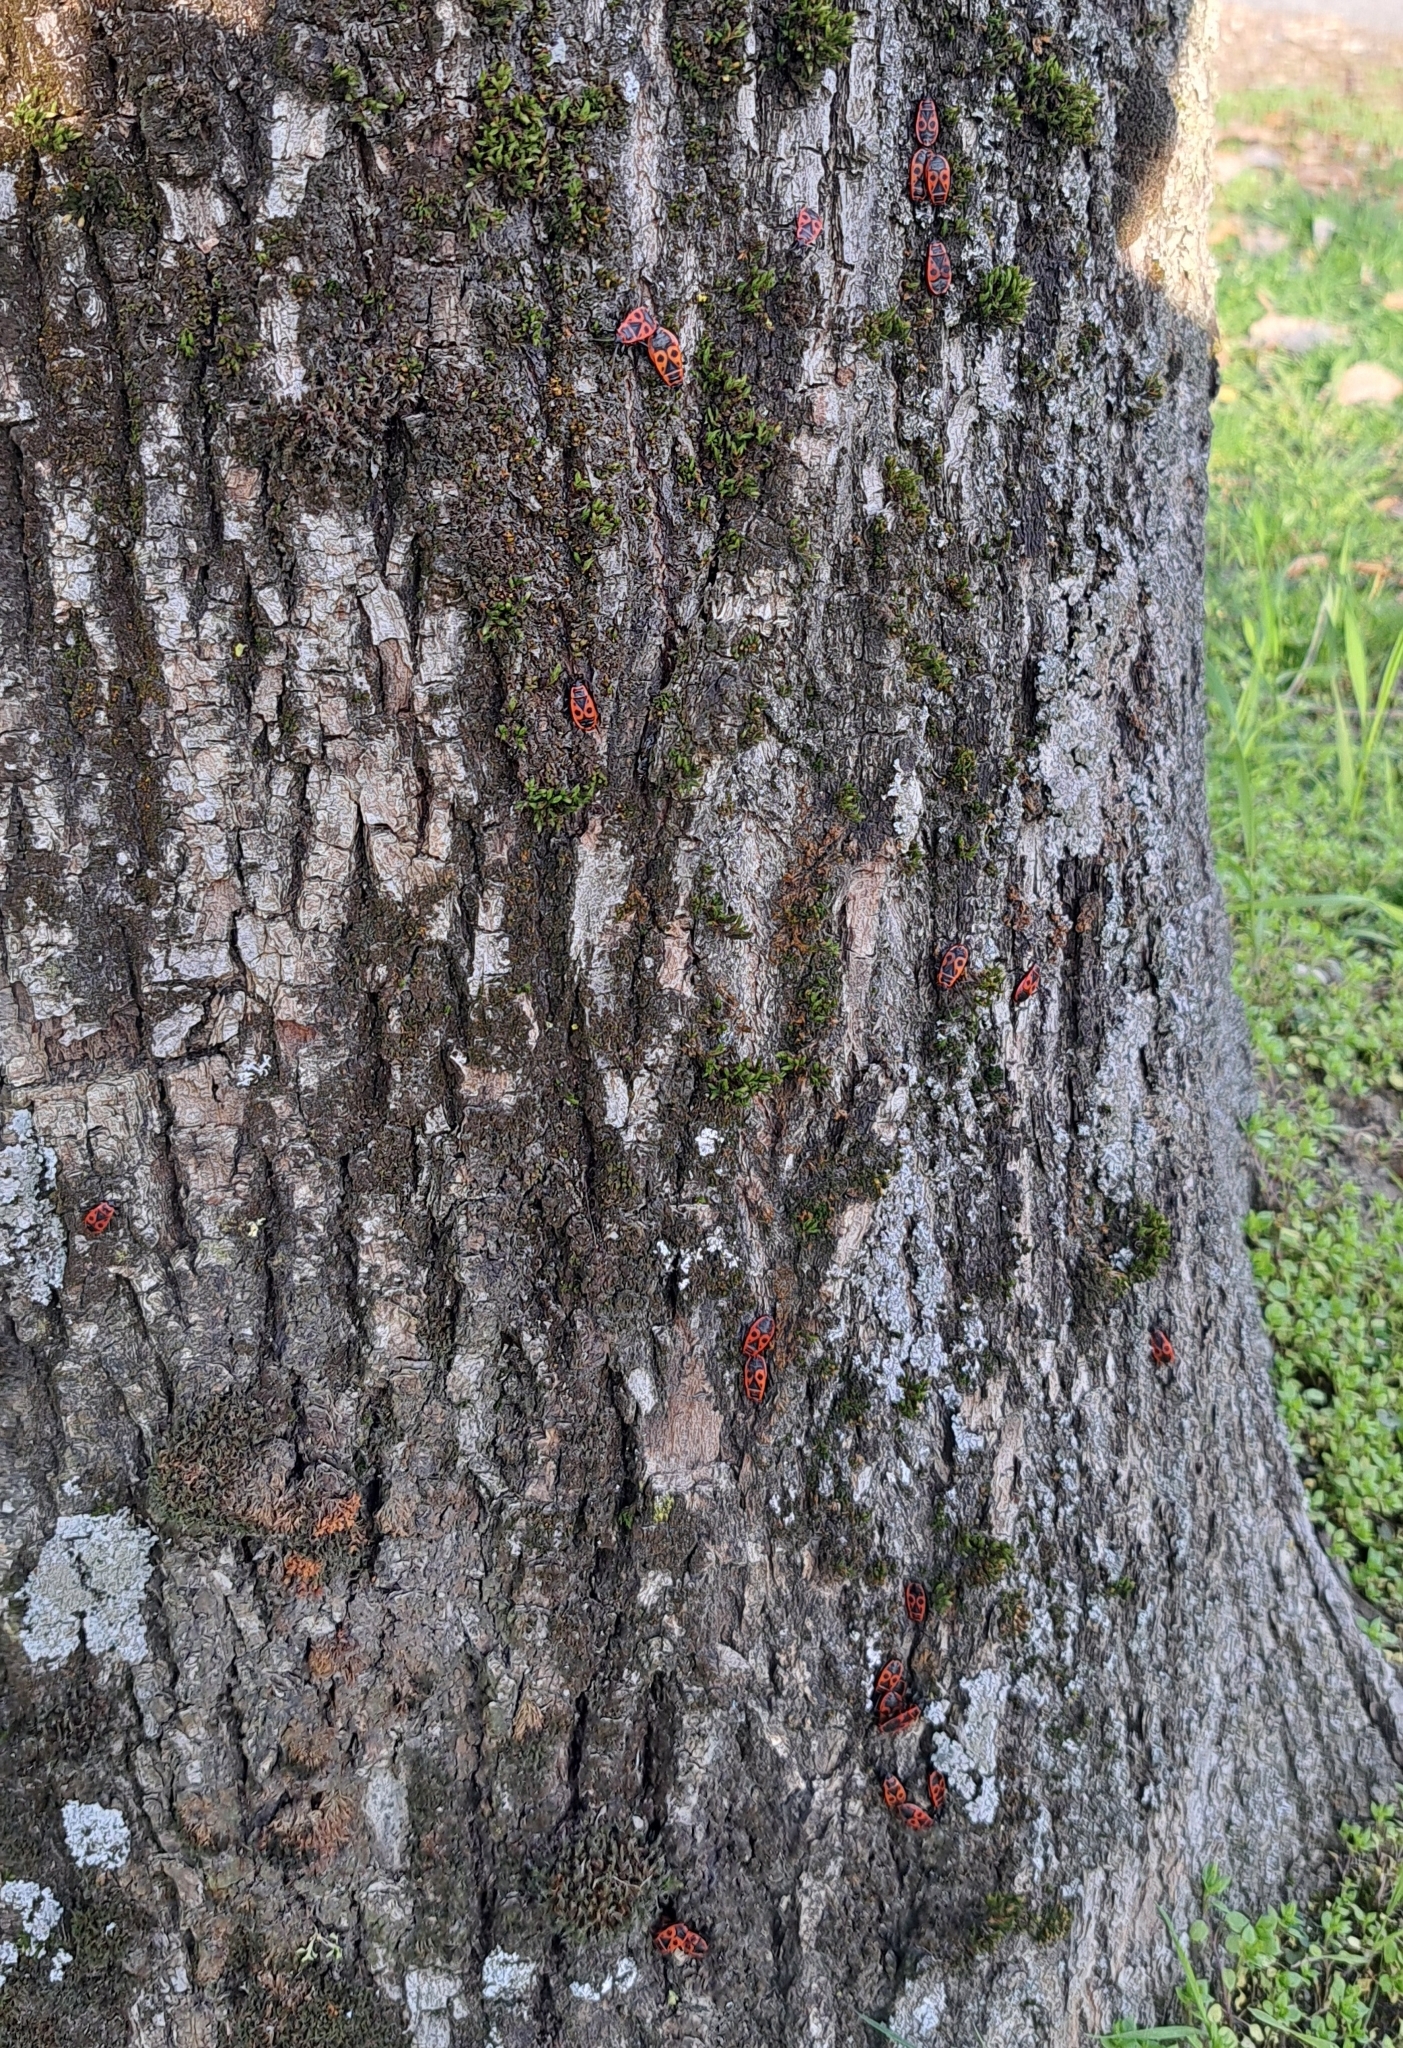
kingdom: Animalia
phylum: Arthropoda
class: Insecta
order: Hemiptera
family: Pyrrhocoridae
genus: Pyrrhocoris
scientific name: Pyrrhocoris apterus
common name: Firebug
